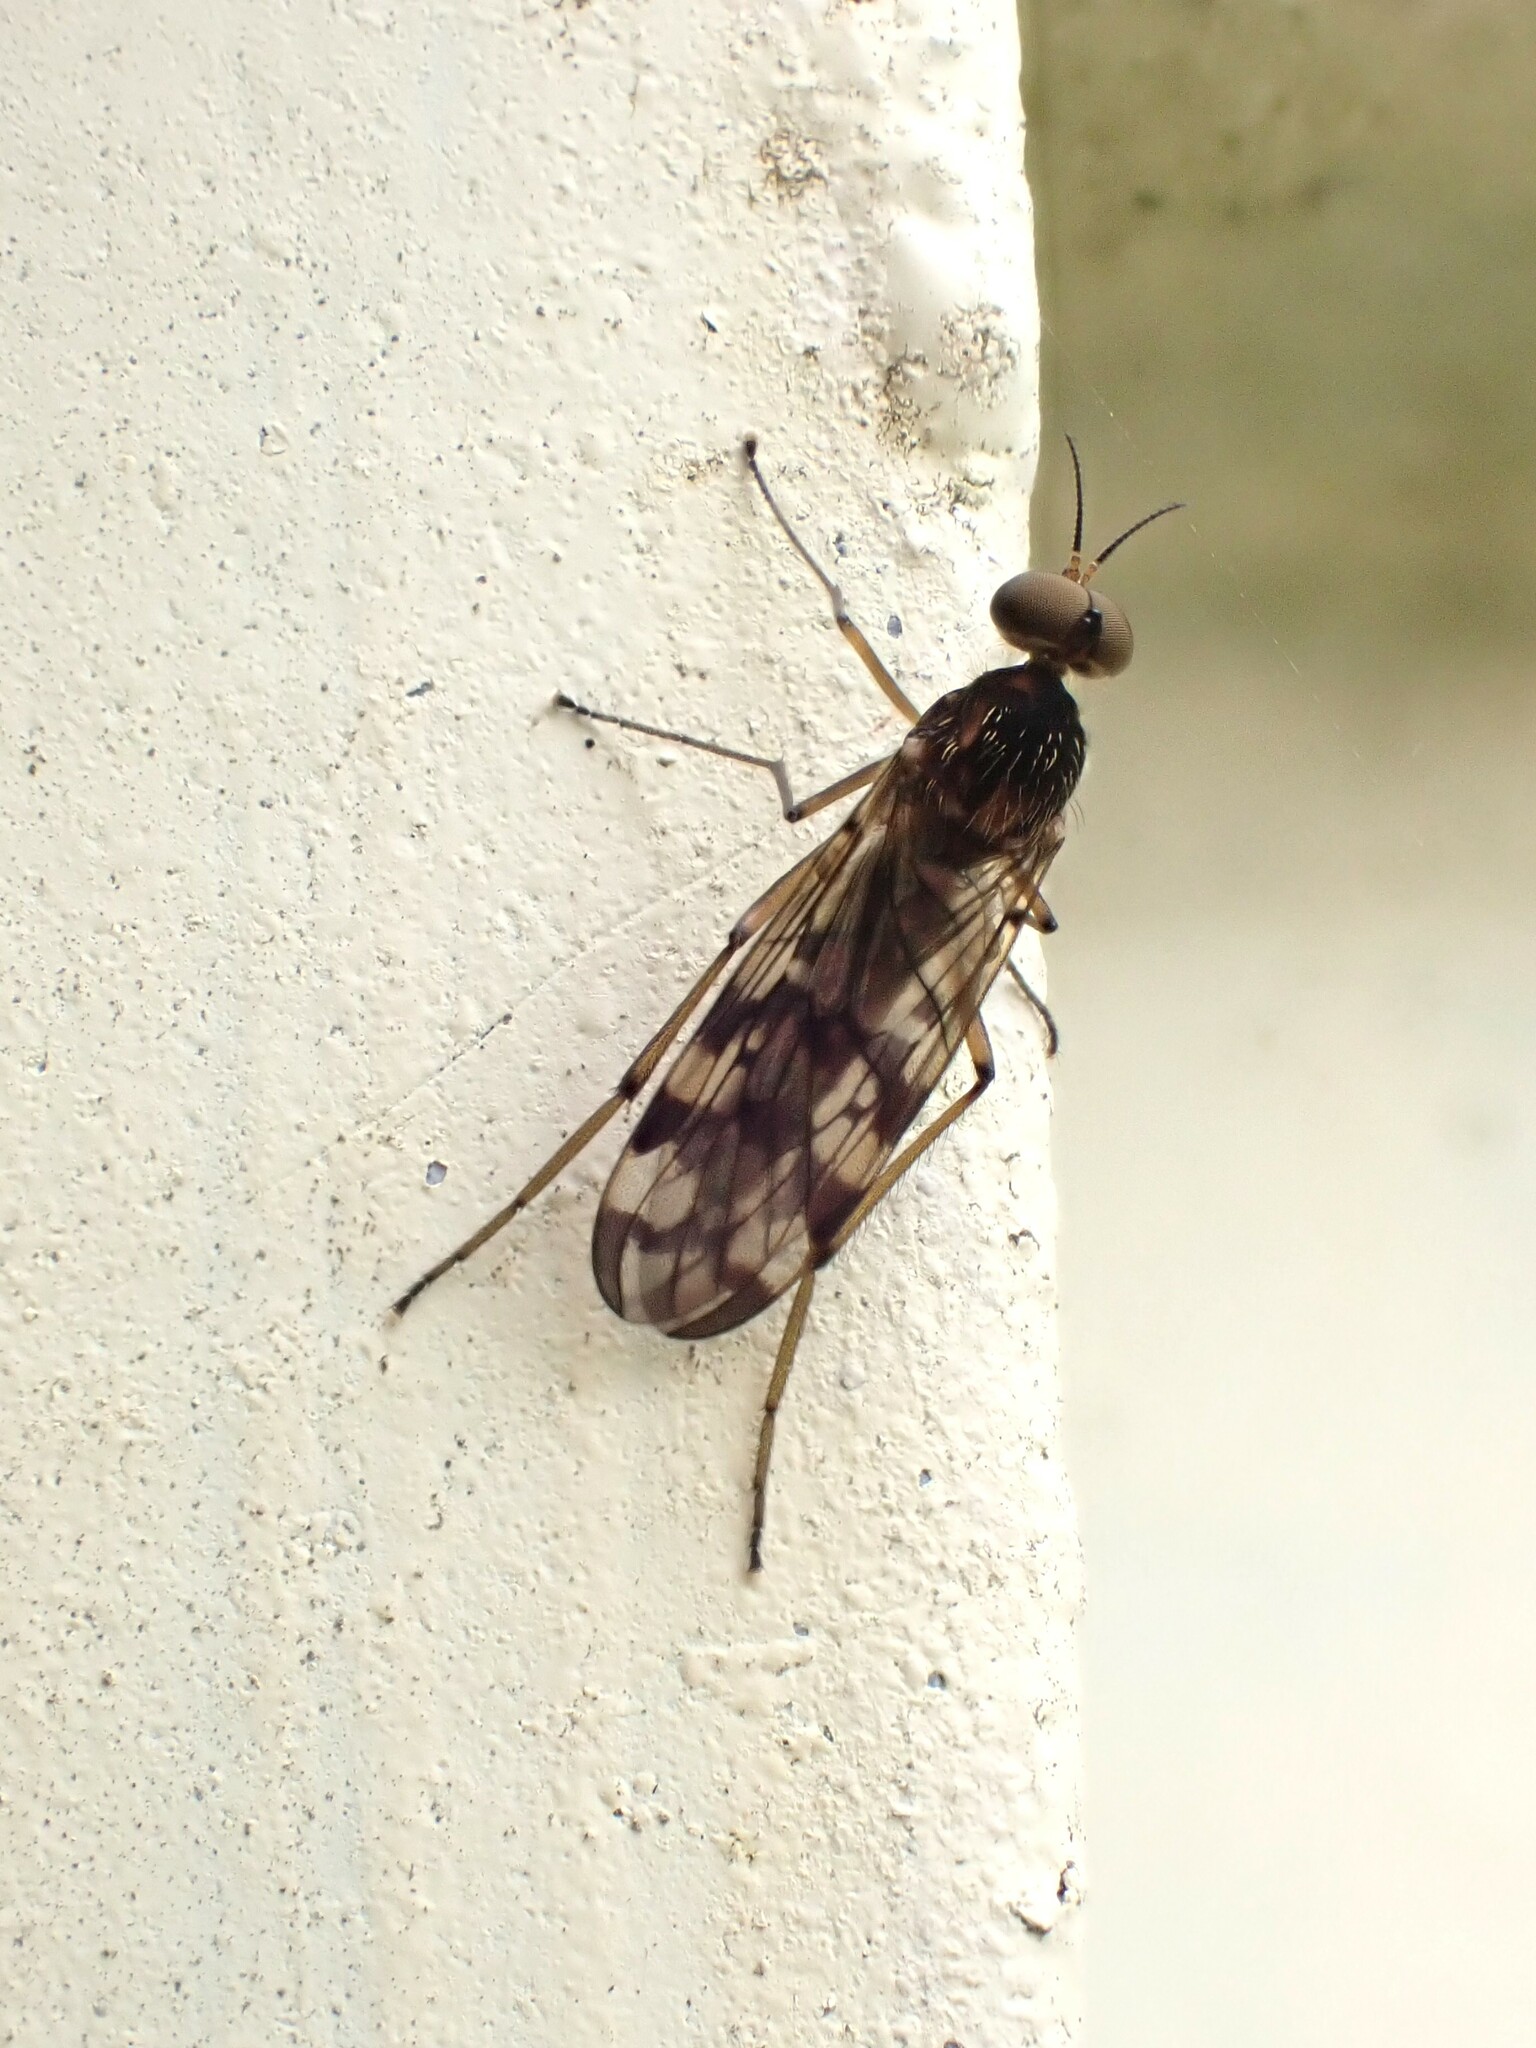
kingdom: Animalia
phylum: Arthropoda
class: Insecta
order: Diptera
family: Anisopodidae
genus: Sylvicola
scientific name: Sylvicola dubius
